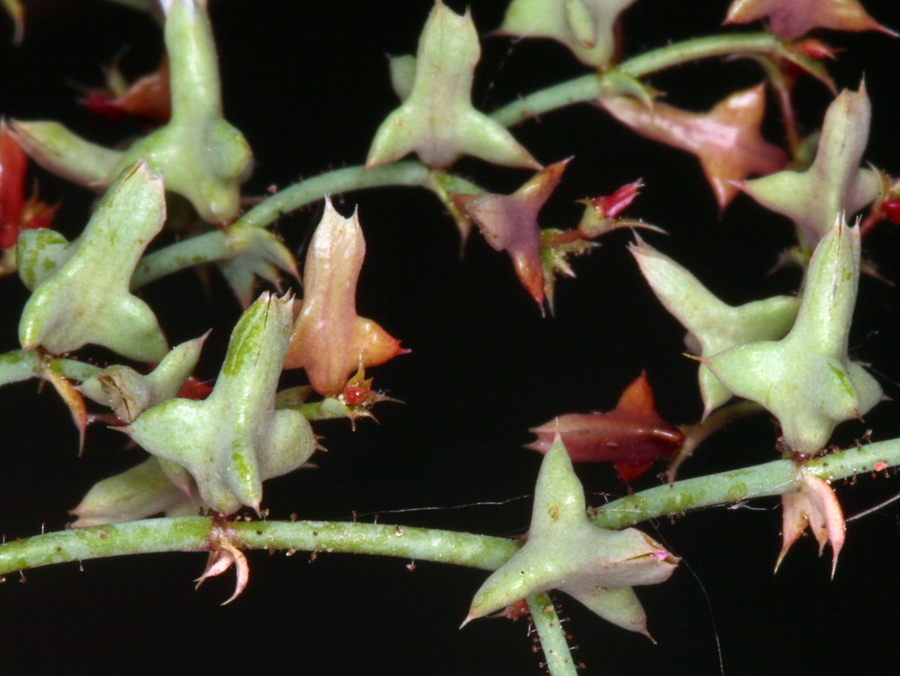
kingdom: Plantae
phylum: Tracheophyta
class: Magnoliopsida
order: Caryophyllales
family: Polygonaceae
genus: Centrostegia
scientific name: Centrostegia thurberi
